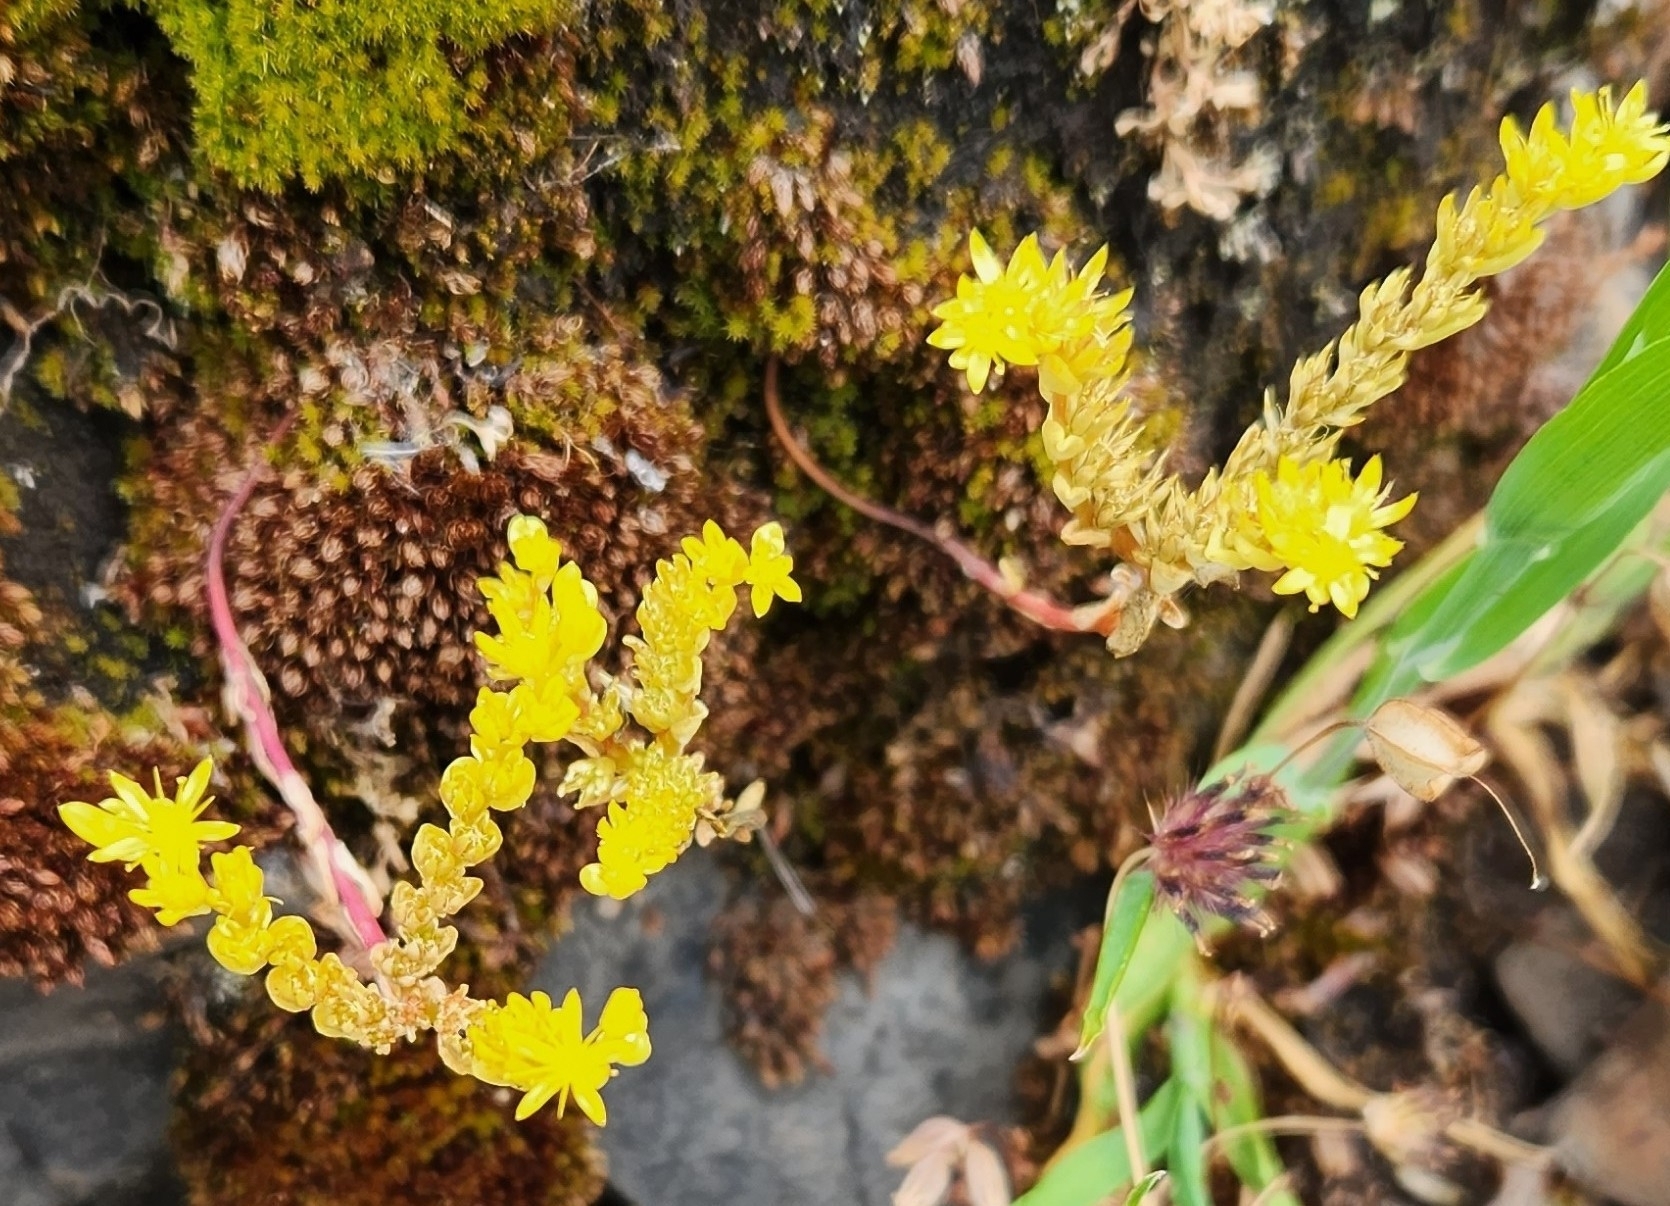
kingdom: Plantae
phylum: Tracheophyta
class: Magnoliopsida
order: Saxifragales
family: Crassulaceae
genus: Sedella
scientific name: Sedella pumila
